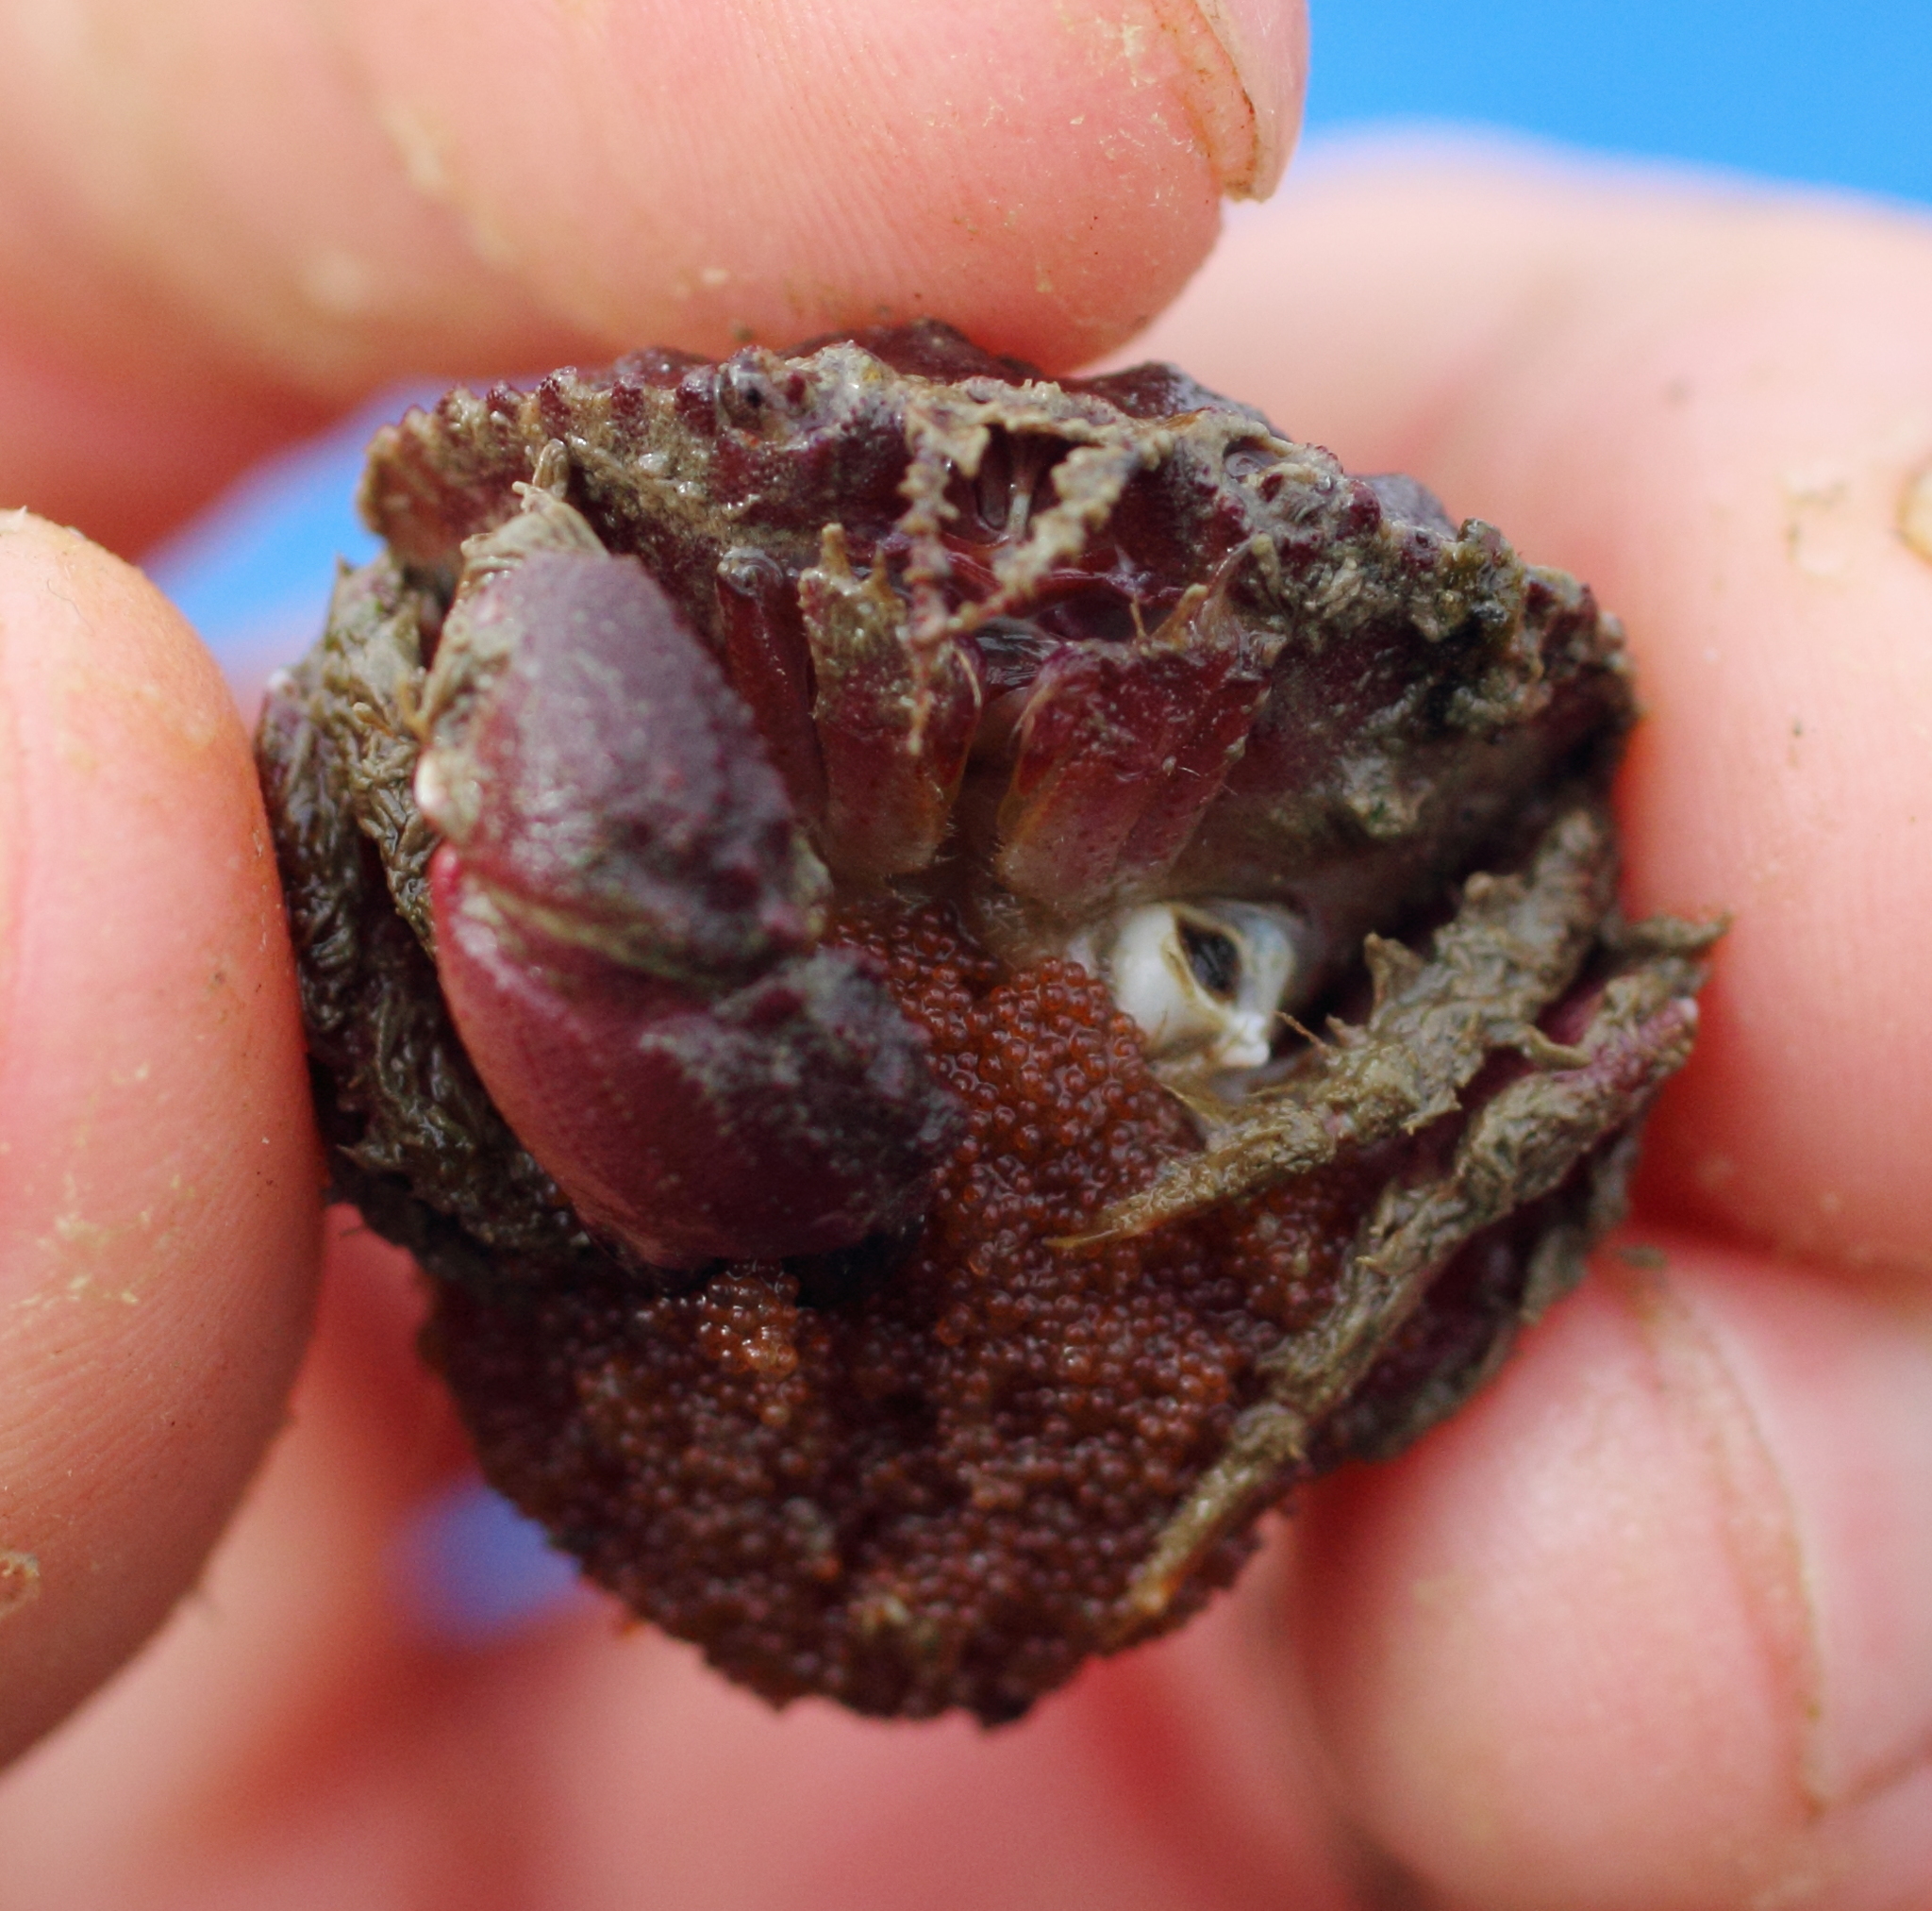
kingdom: Animalia
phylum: Arthropoda
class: Malacostraca
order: Decapoda
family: Cancridae
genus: Glebocarcinus
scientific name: Glebocarcinus oregonensis
